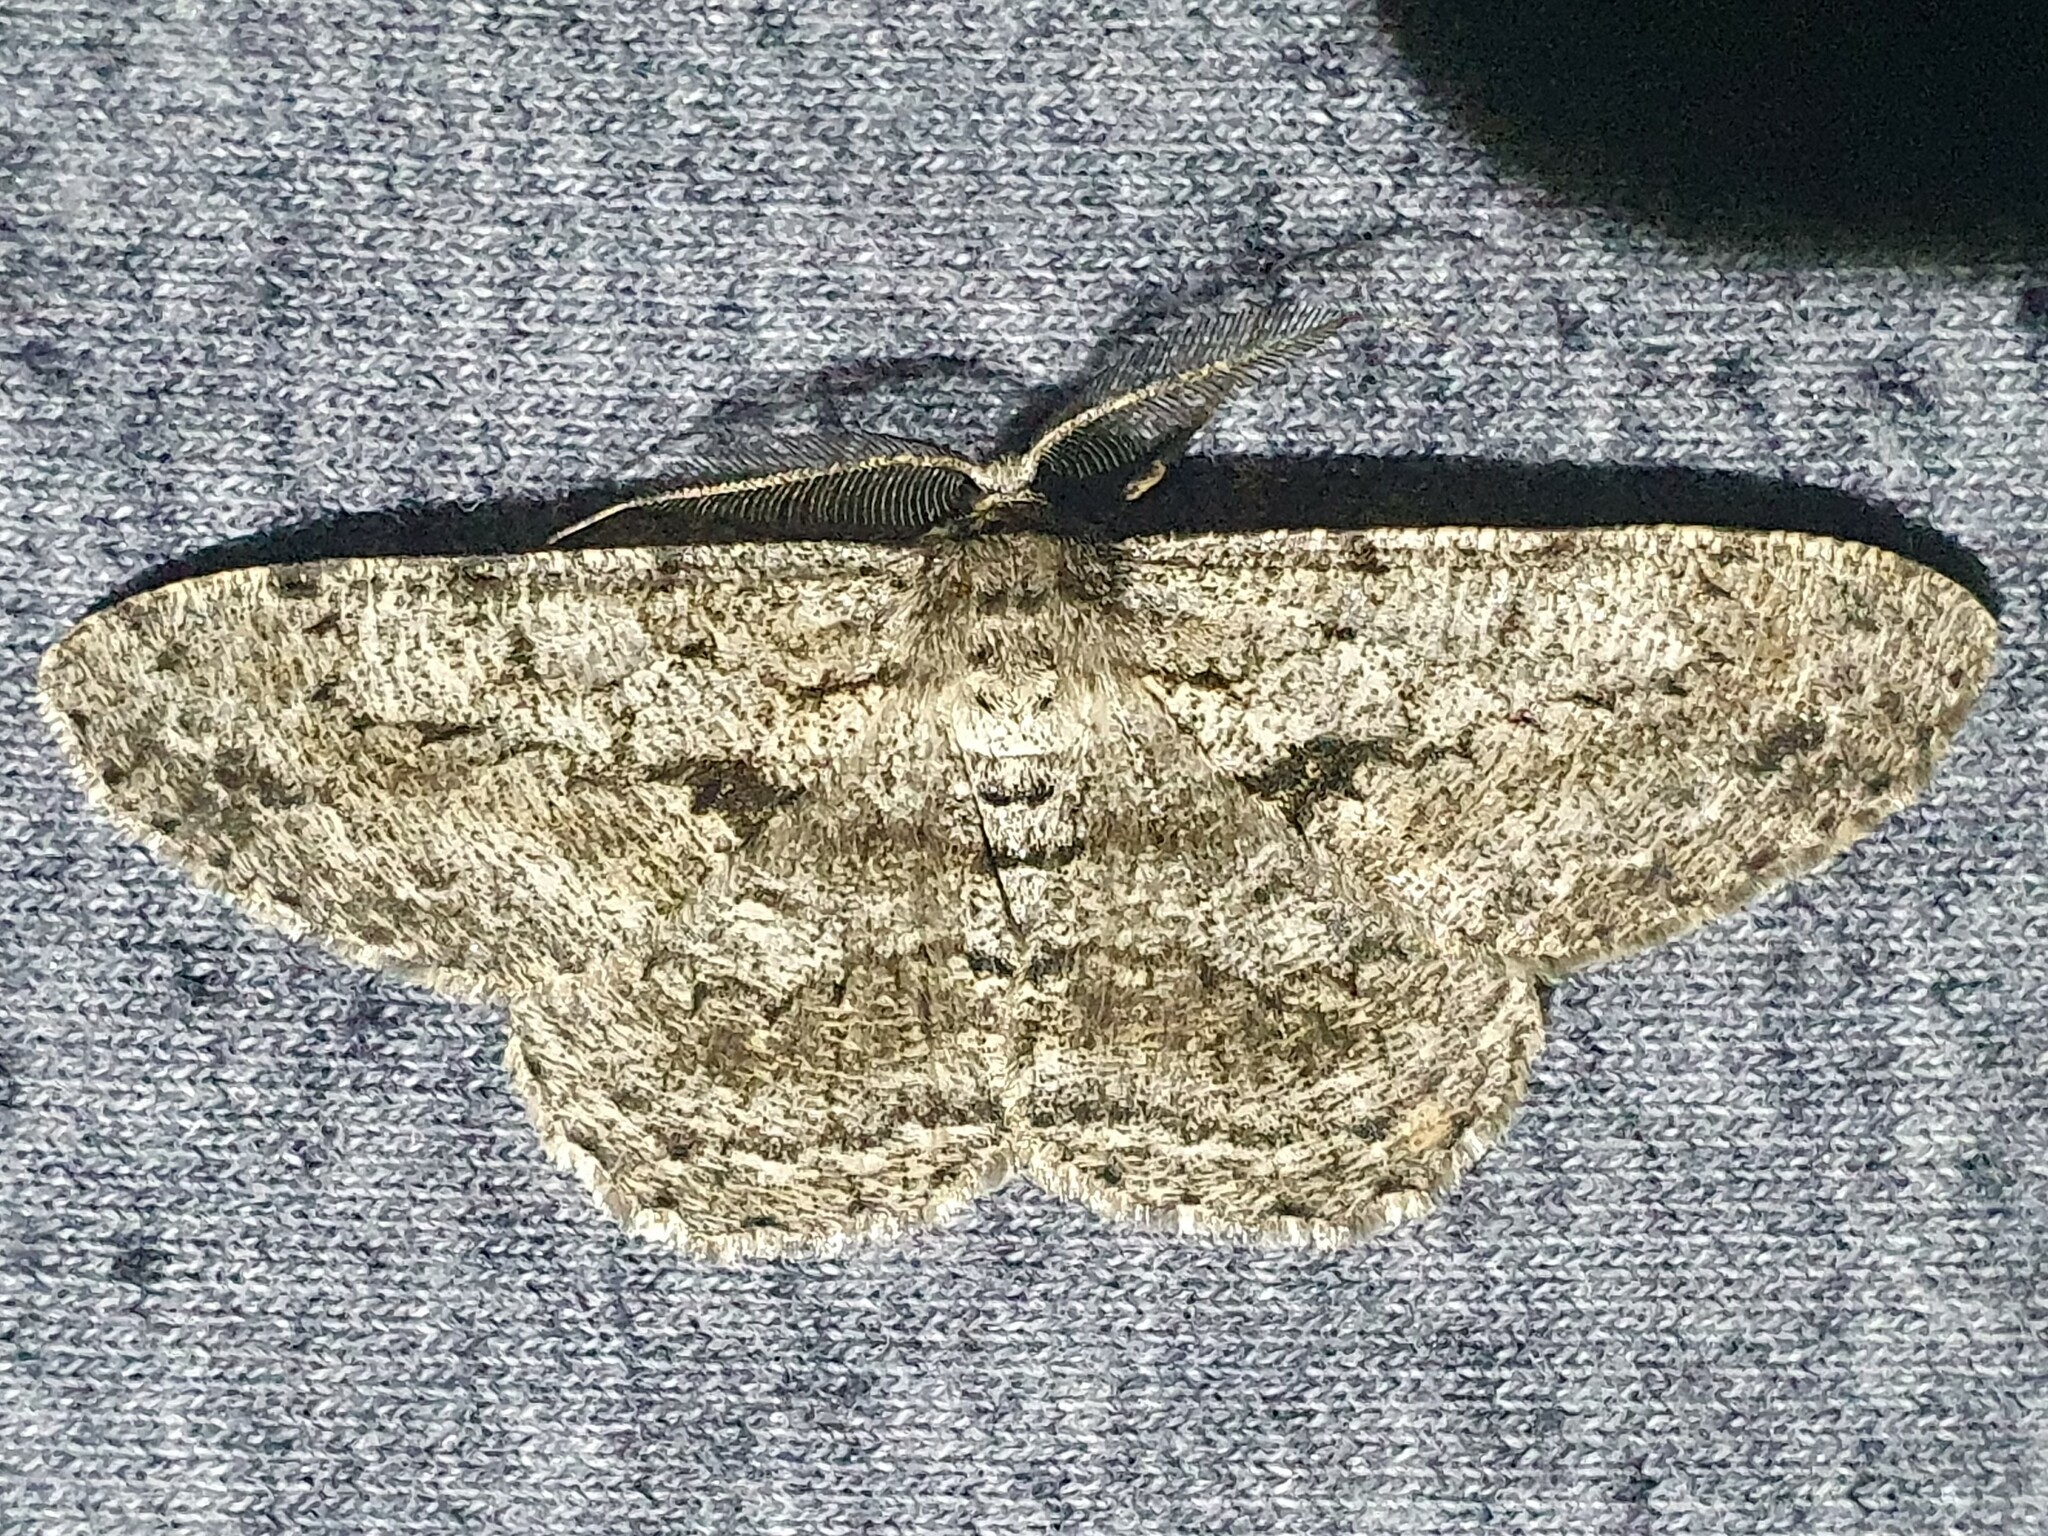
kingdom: Animalia
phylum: Arthropoda
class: Insecta
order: Lepidoptera
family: Geometridae
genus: Hypomecis
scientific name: Hypomecis roboraria
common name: Great oak beauty
